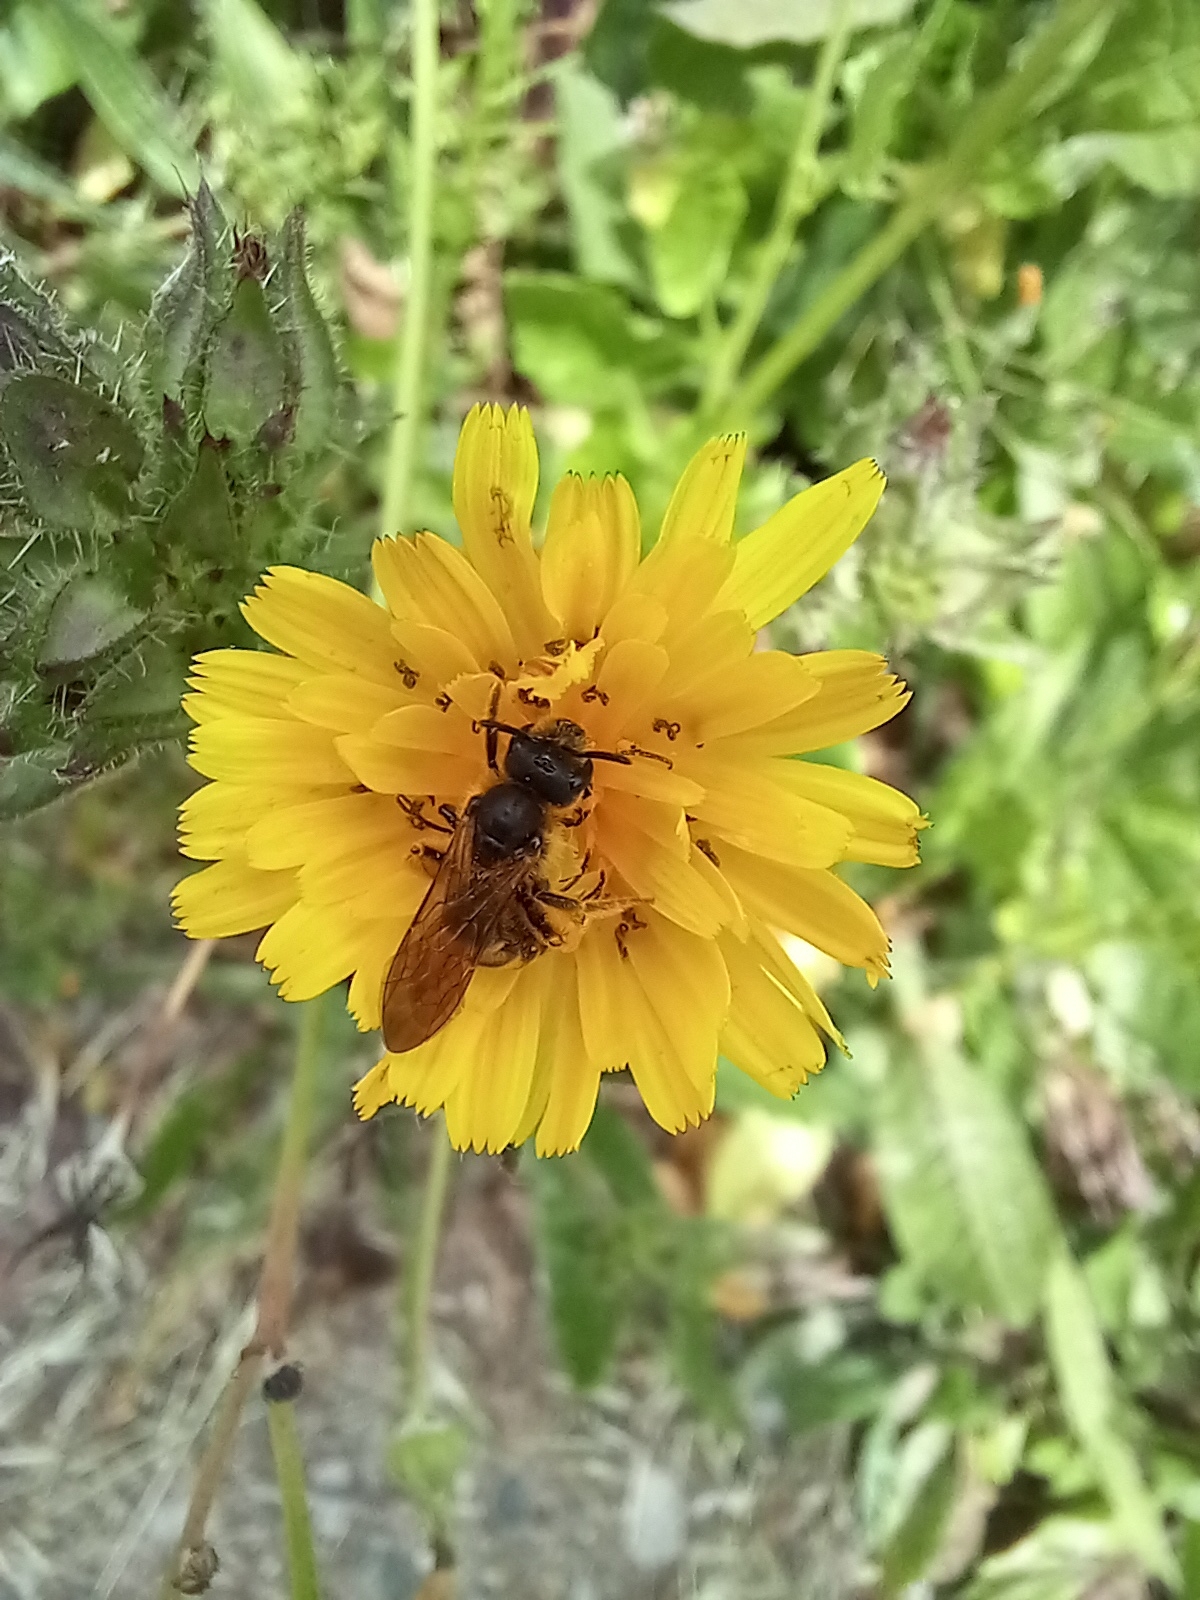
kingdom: Animalia
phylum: Arthropoda
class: Insecta
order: Hymenoptera
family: Halictidae
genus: Halictus
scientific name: Halictus scabiosae
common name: Great banded furrow bee
